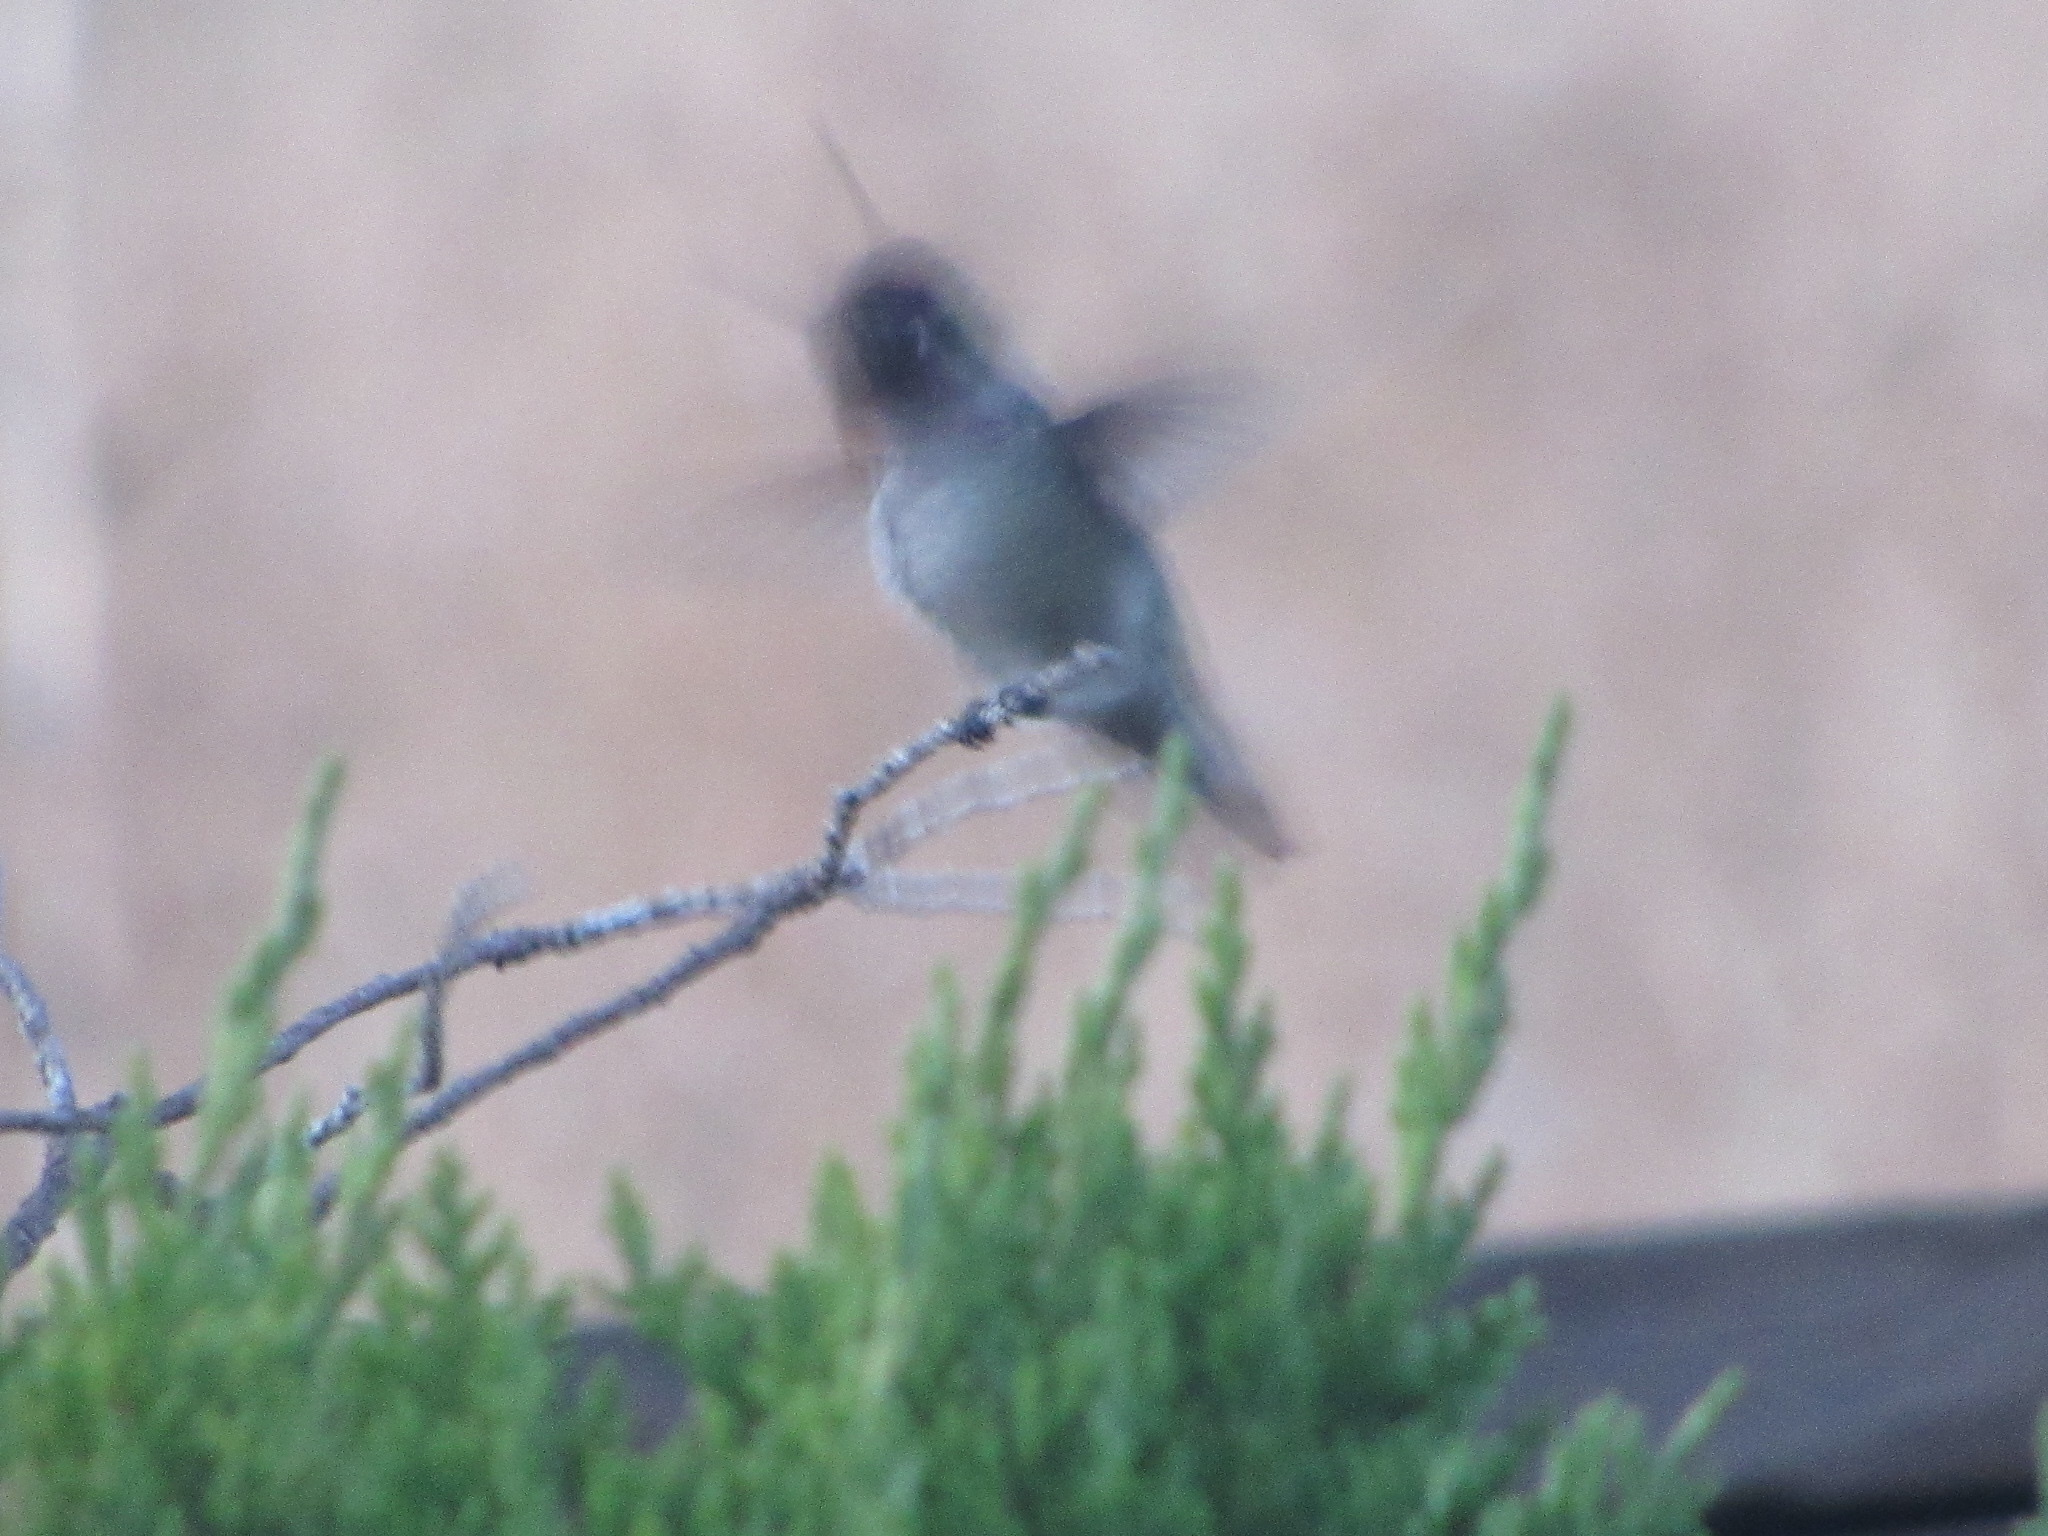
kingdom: Animalia
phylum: Chordata
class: Aves
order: Apodiformes
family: Trochilidae
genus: Calypte
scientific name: Calypte anna
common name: Anna's hummingbird
